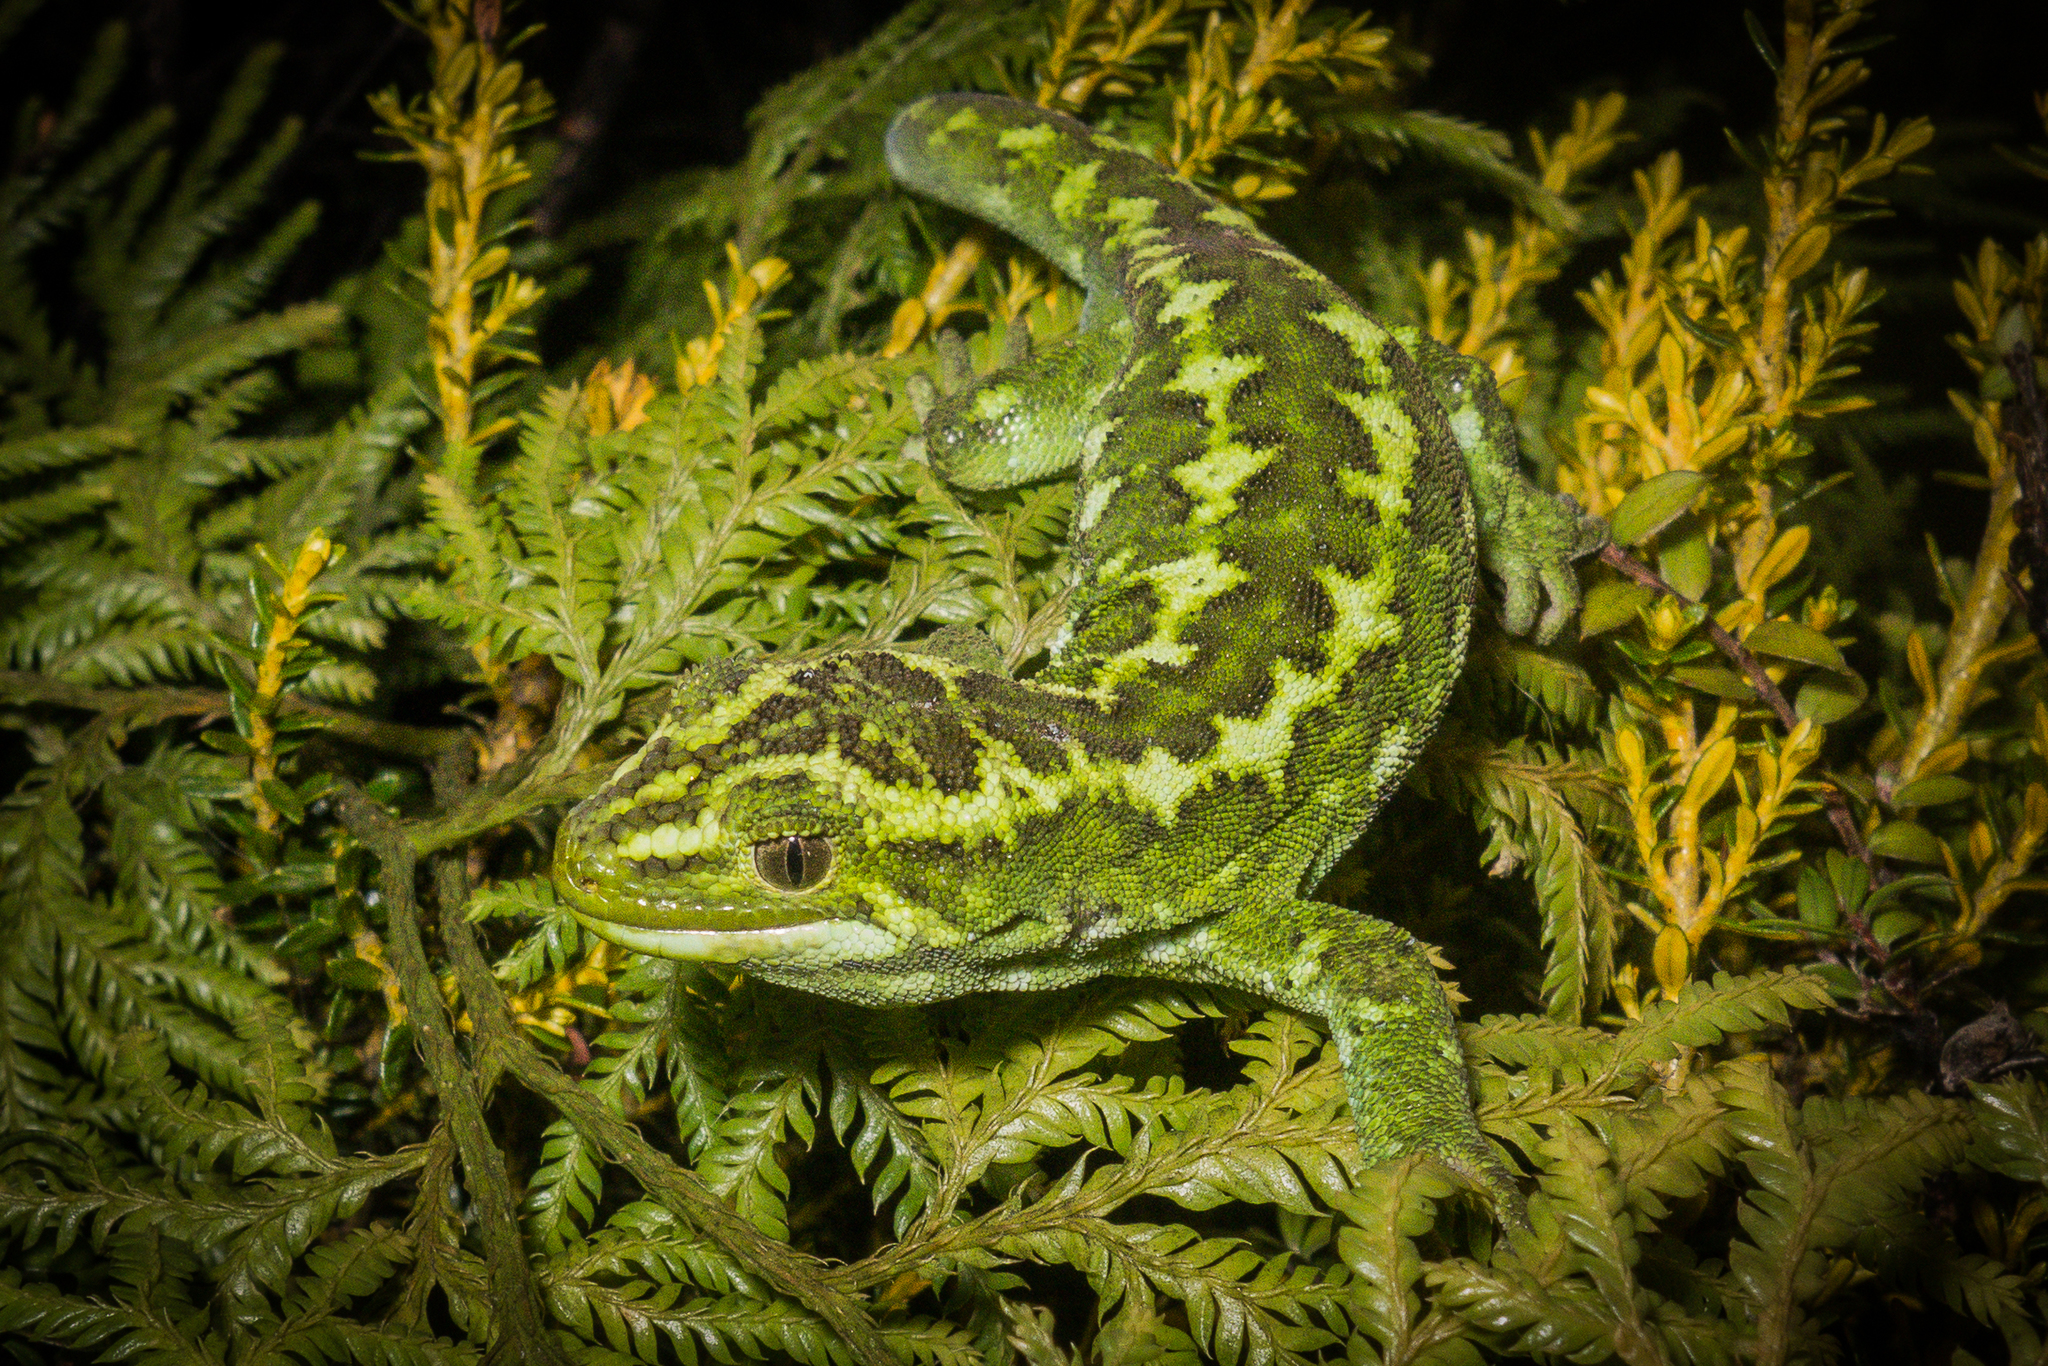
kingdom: Animalia
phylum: Chordata
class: Squamata
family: Diplodactylidae
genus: Naultinus
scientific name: Naultinus gemmeus
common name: Jewelled gecko
